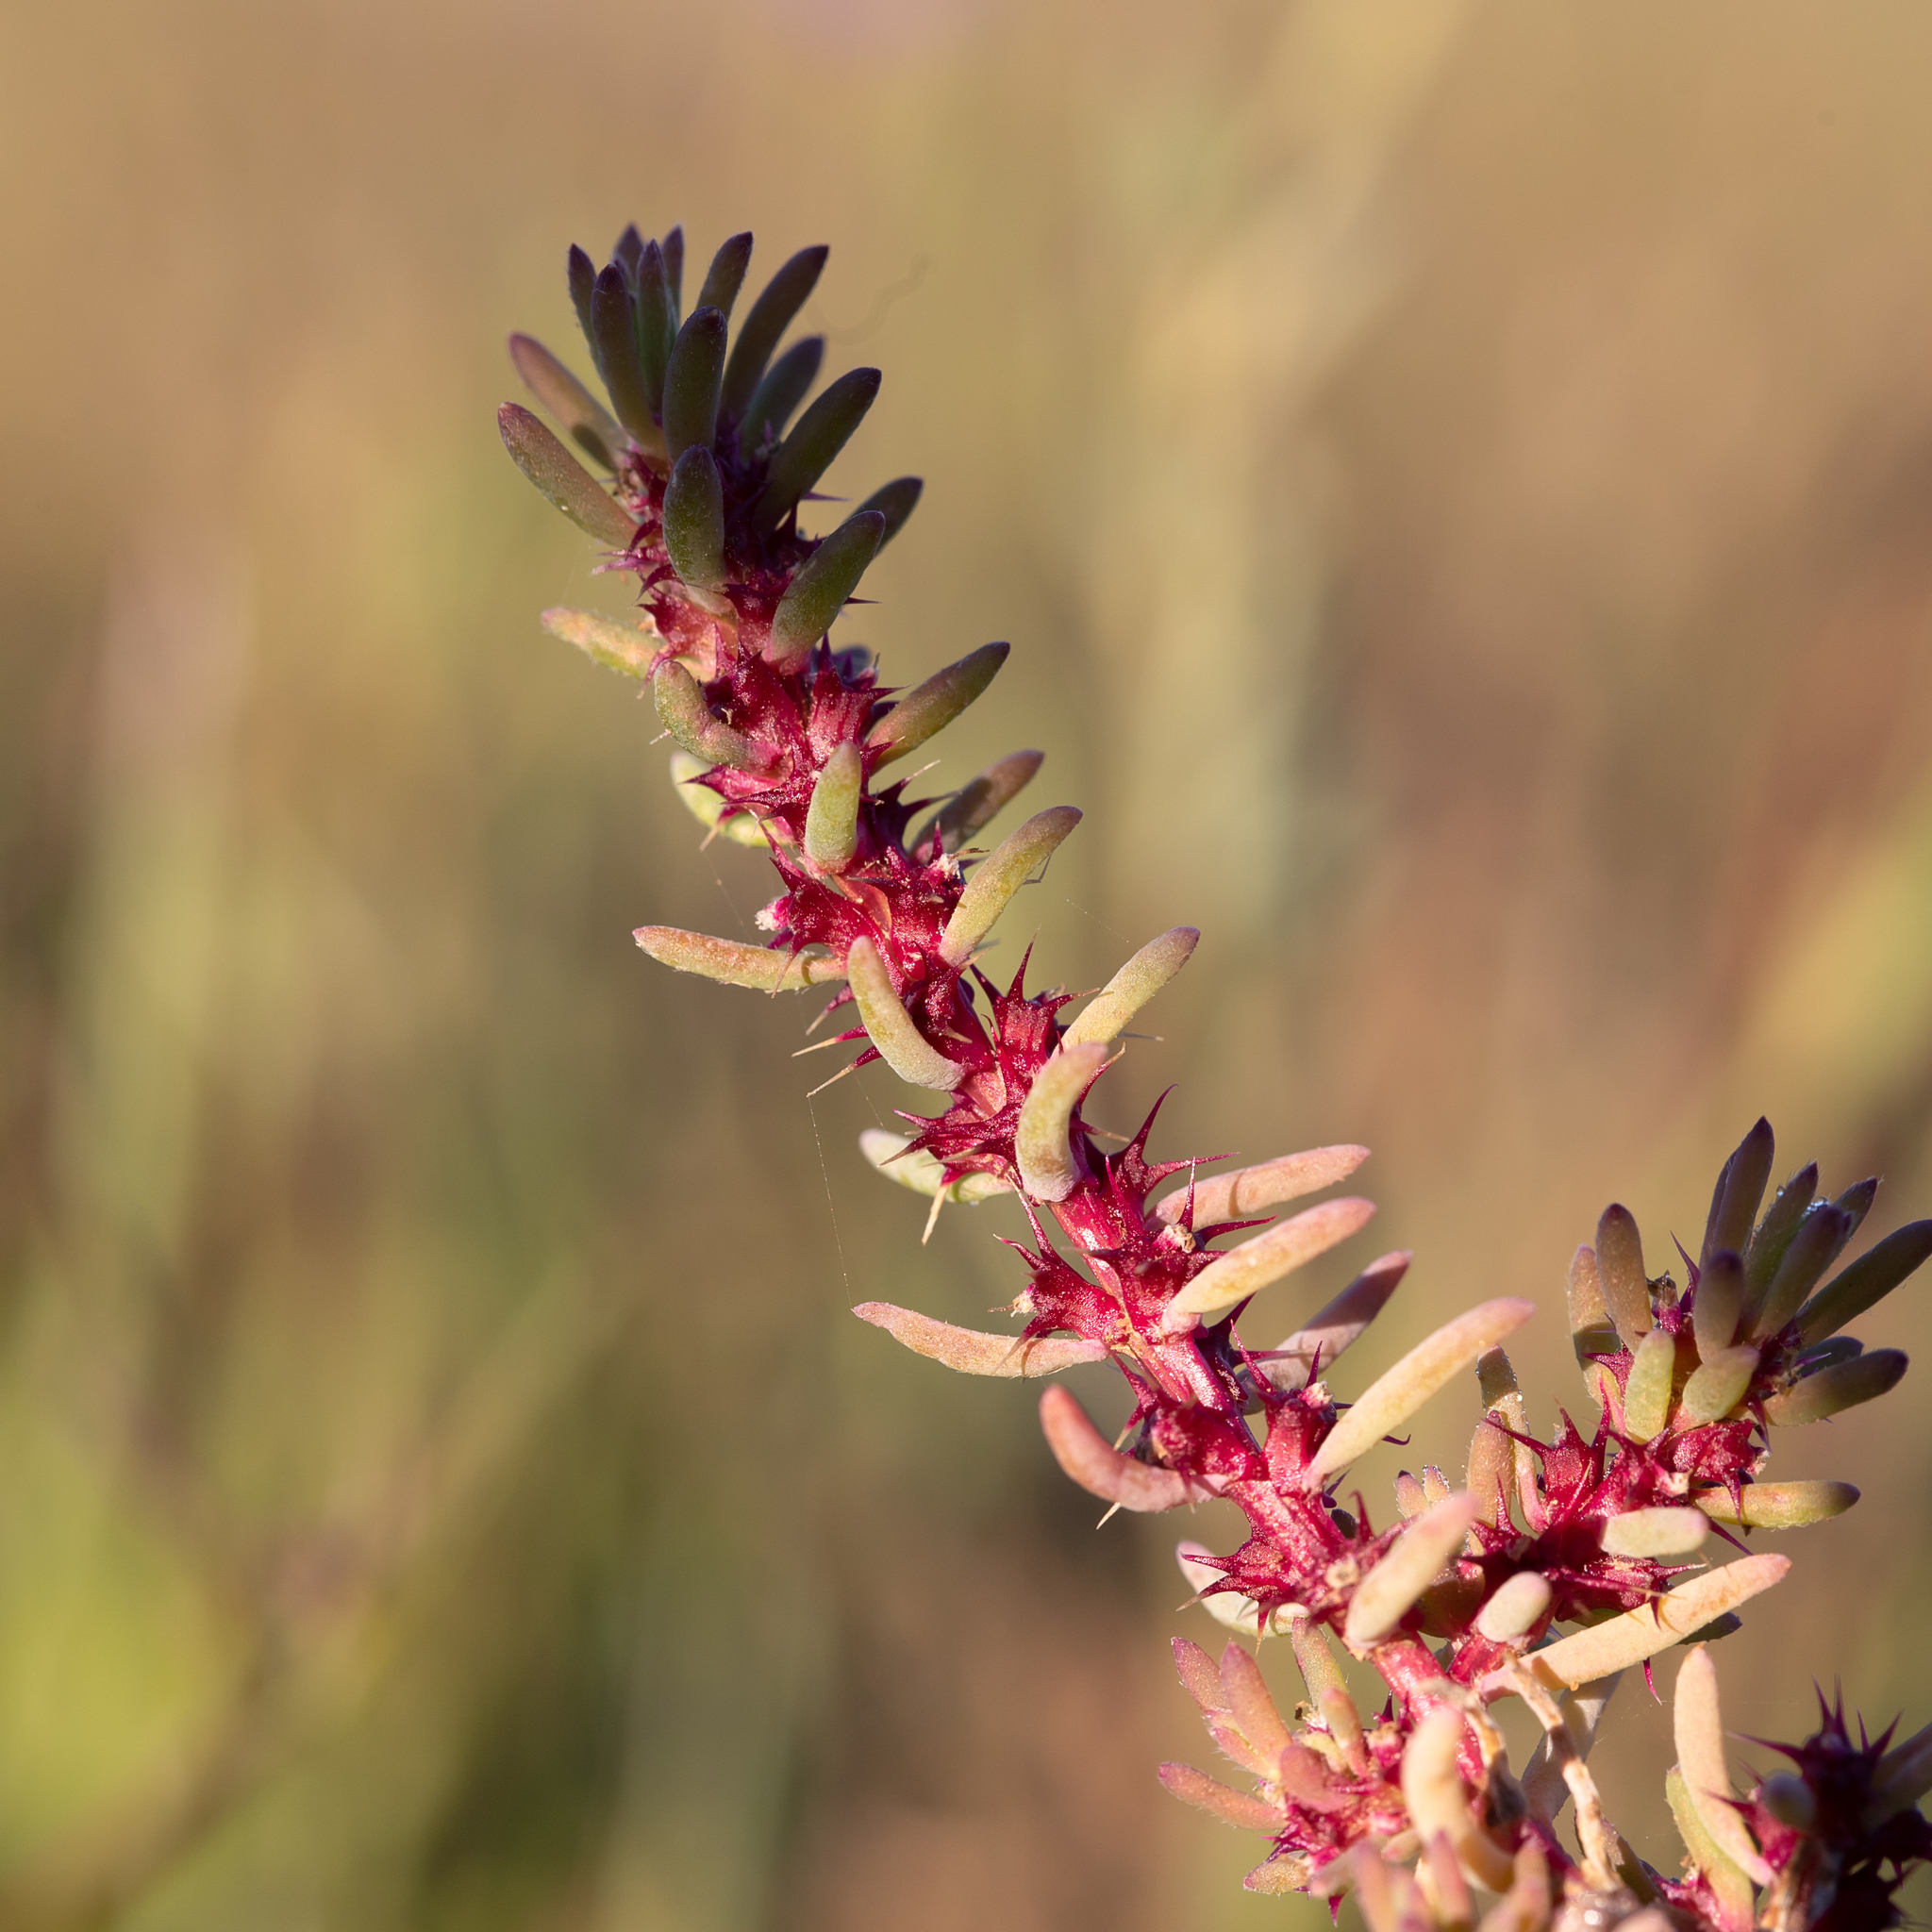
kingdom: Plantae
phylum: Tracheophyta
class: Magnoliopsida
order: Caryophyllales
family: Amaranthaceae
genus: Sclerolaena
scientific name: Sclerolaena calcarata
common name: Red copperbur
